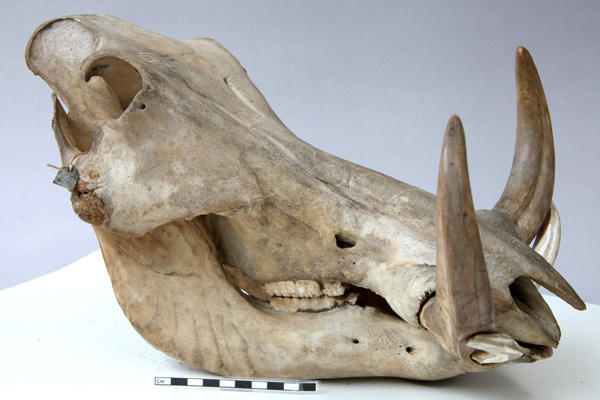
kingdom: Animalia
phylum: Chordata
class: Mammalia
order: Artiodactyla
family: Suidae
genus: Phacochoerus
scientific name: Phacochoerus aethiopicus
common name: Desert warthog
